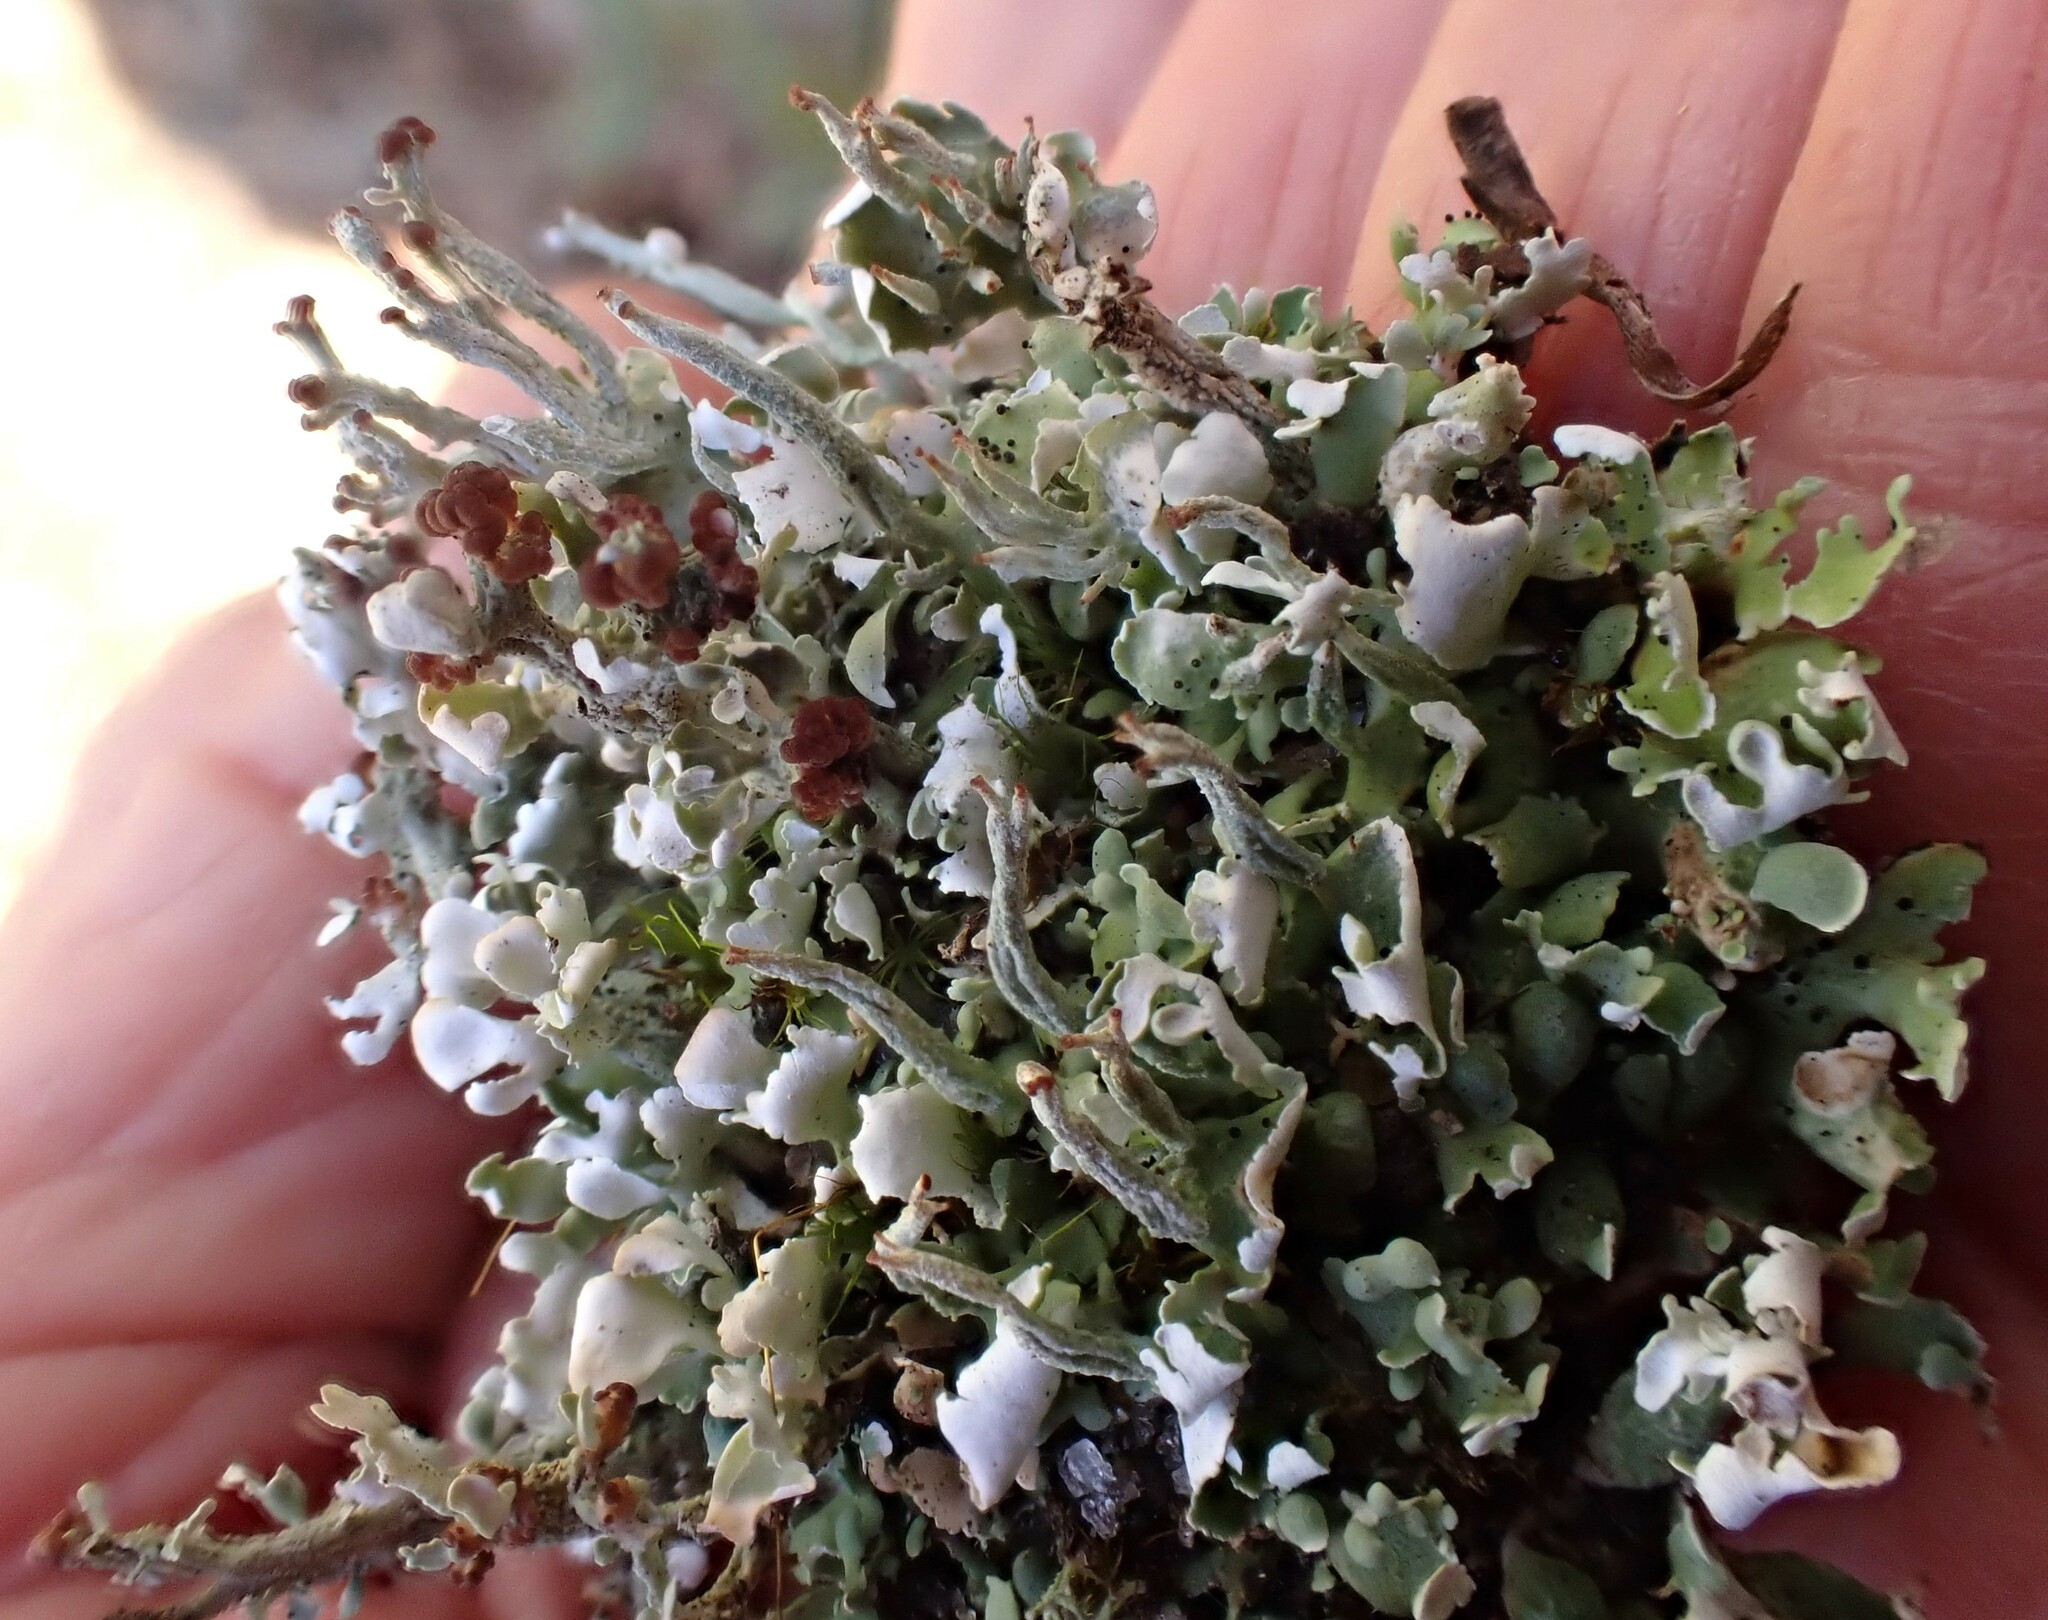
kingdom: Fungi
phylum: Ascomycota
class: Lecanoromycetes
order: Lecanorales
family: Cladoniaceae
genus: Cladonia
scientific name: Cladonia subcariosa
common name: Peg lichen
